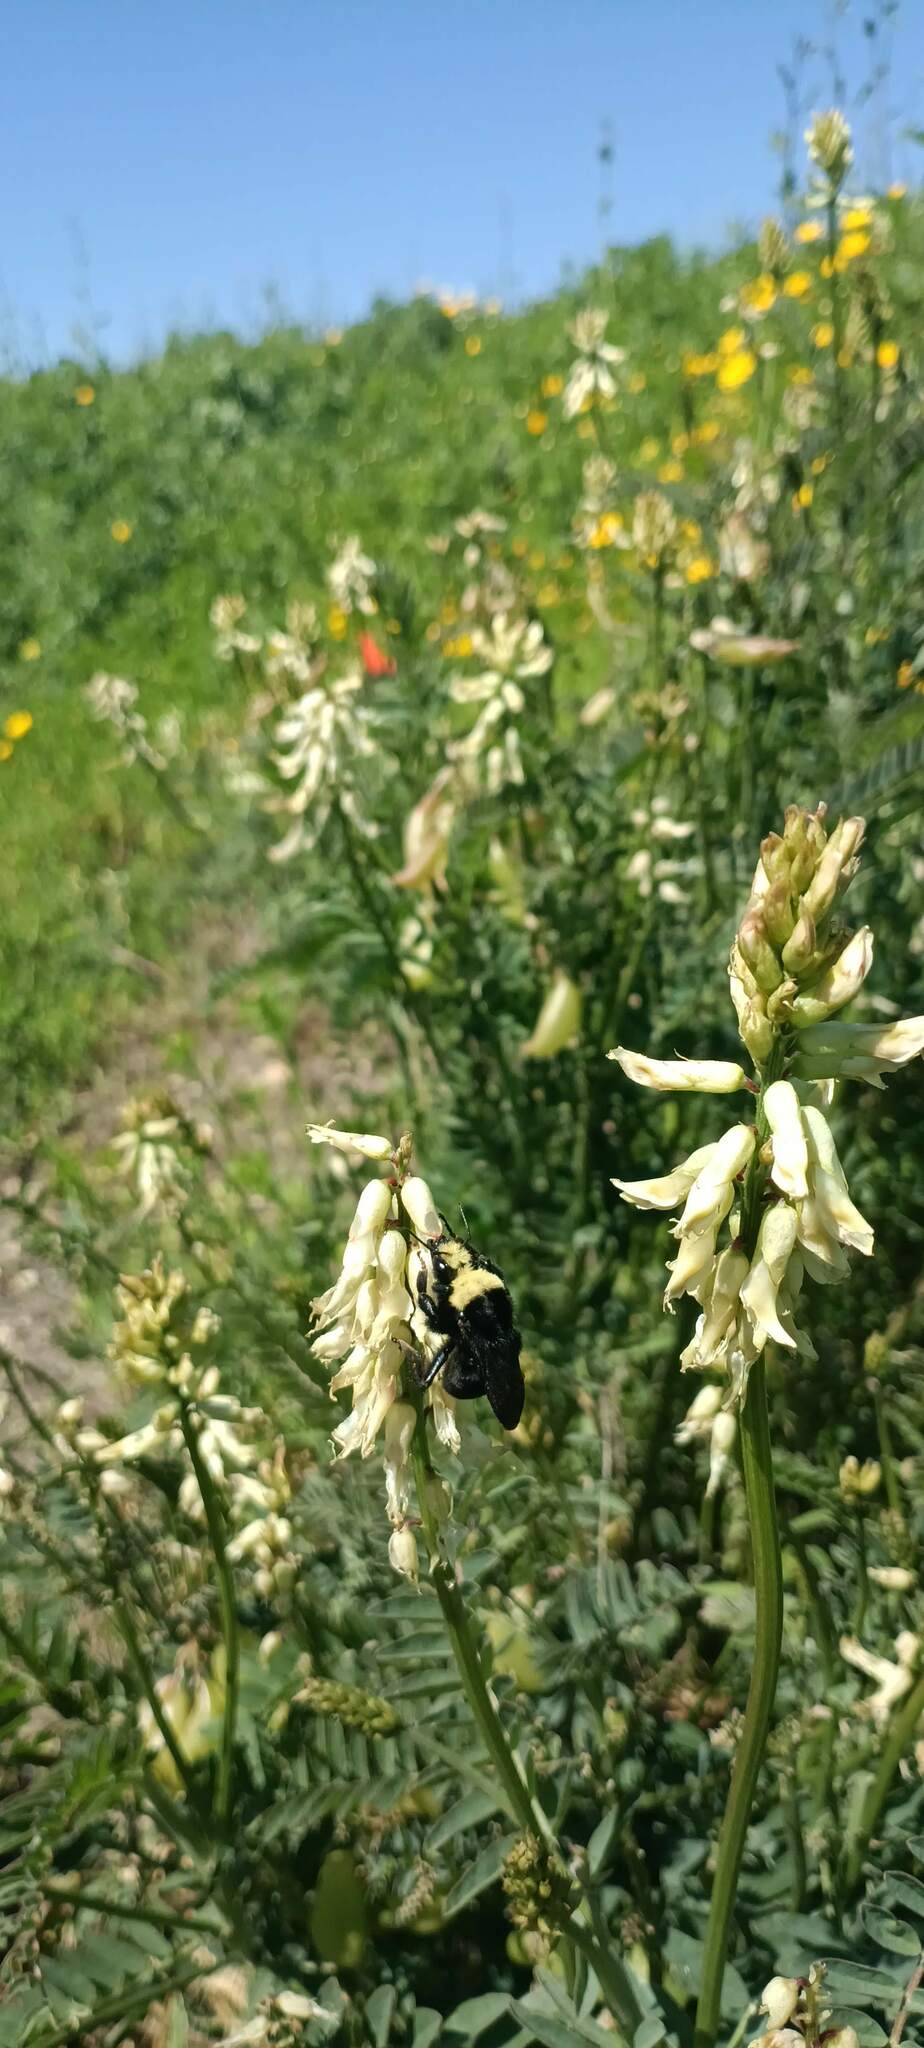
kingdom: Animalia
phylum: Arthropoda
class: Insecta
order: Hymenoptera
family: Apidae
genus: Bombus
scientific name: Bombus vosnesenskii
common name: Vosnesensky bumble bee
